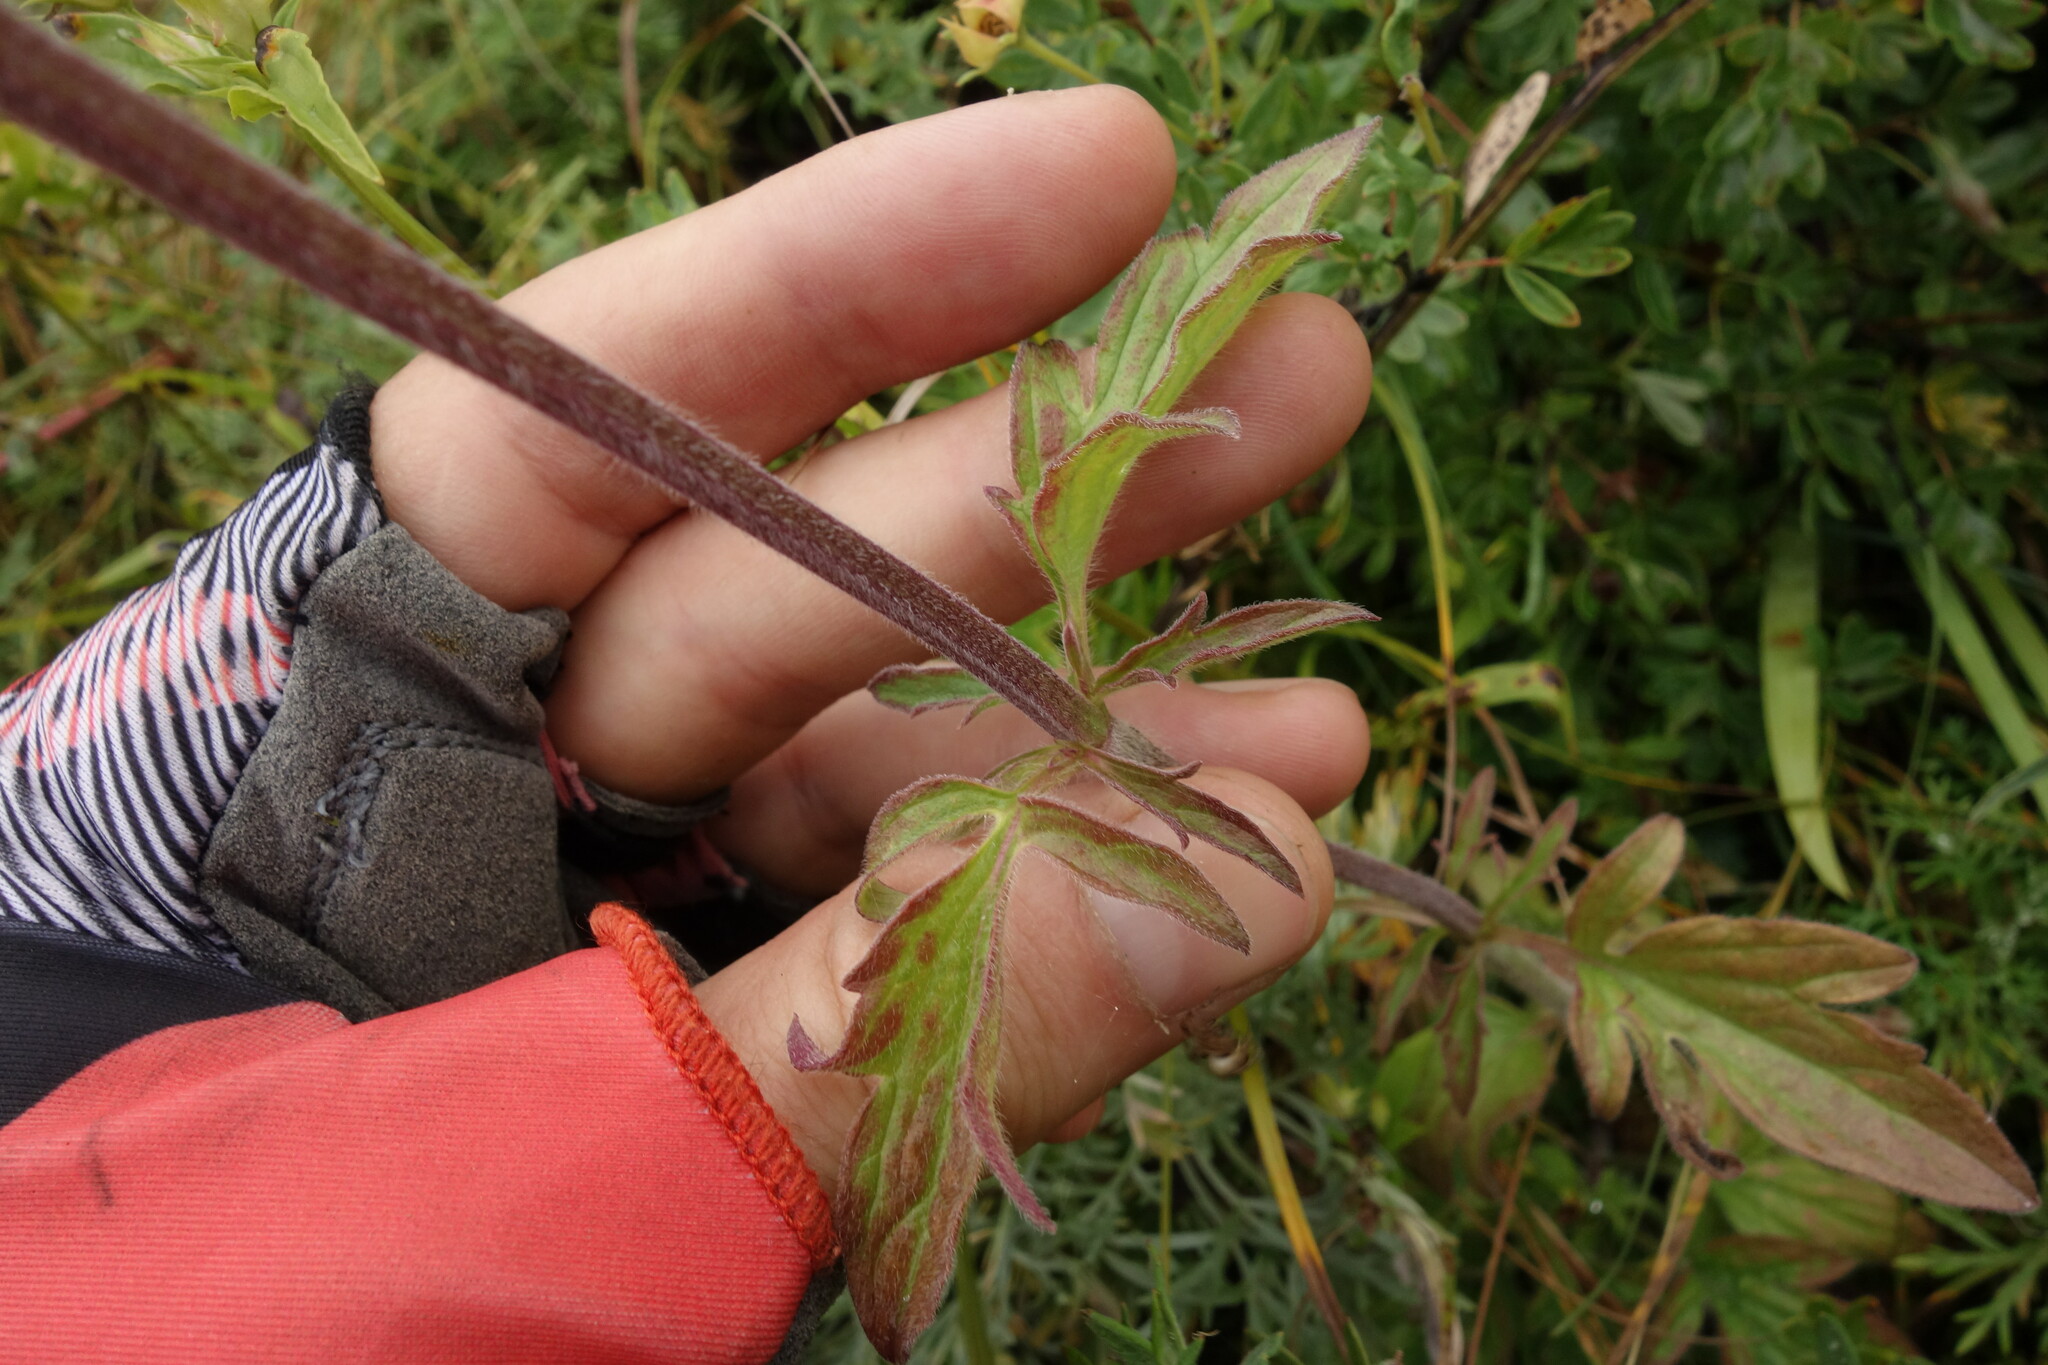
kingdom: Plantae
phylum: Tracheophyta
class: Magnoliopsida
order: Lamiales
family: Lamiaceae
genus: Nepeta
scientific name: Nepeta multifida
